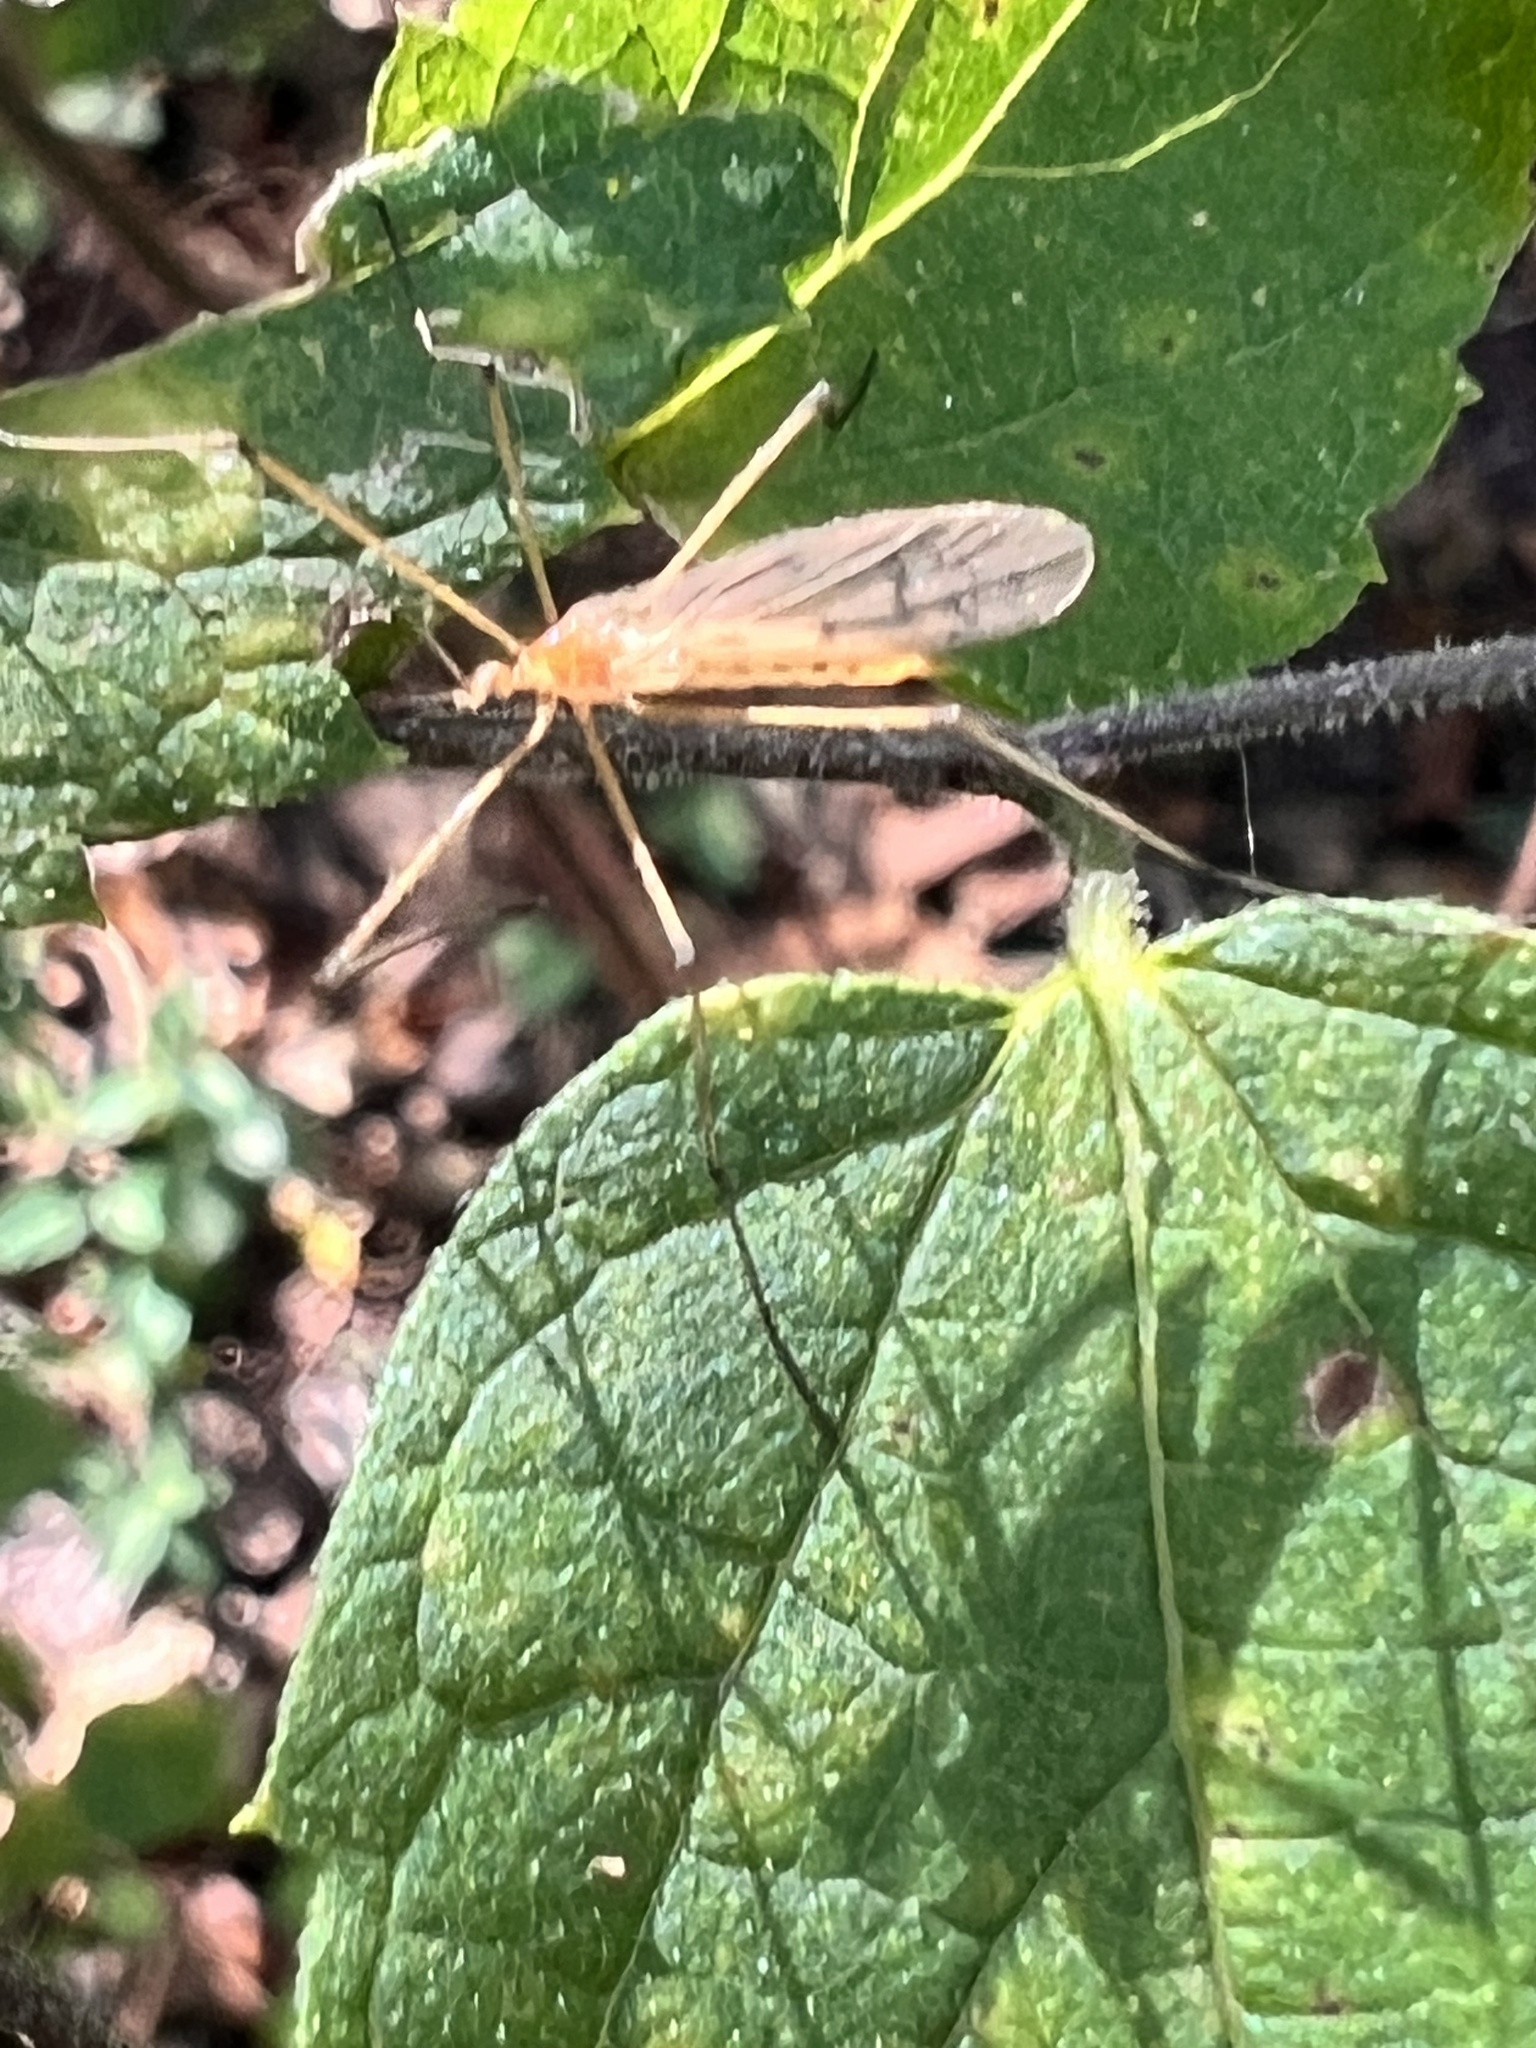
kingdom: Animalia
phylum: Arthropoda
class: Insecta
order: Diptera
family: Limoniidae
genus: Cladura
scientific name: Cladura flavoferruginea
